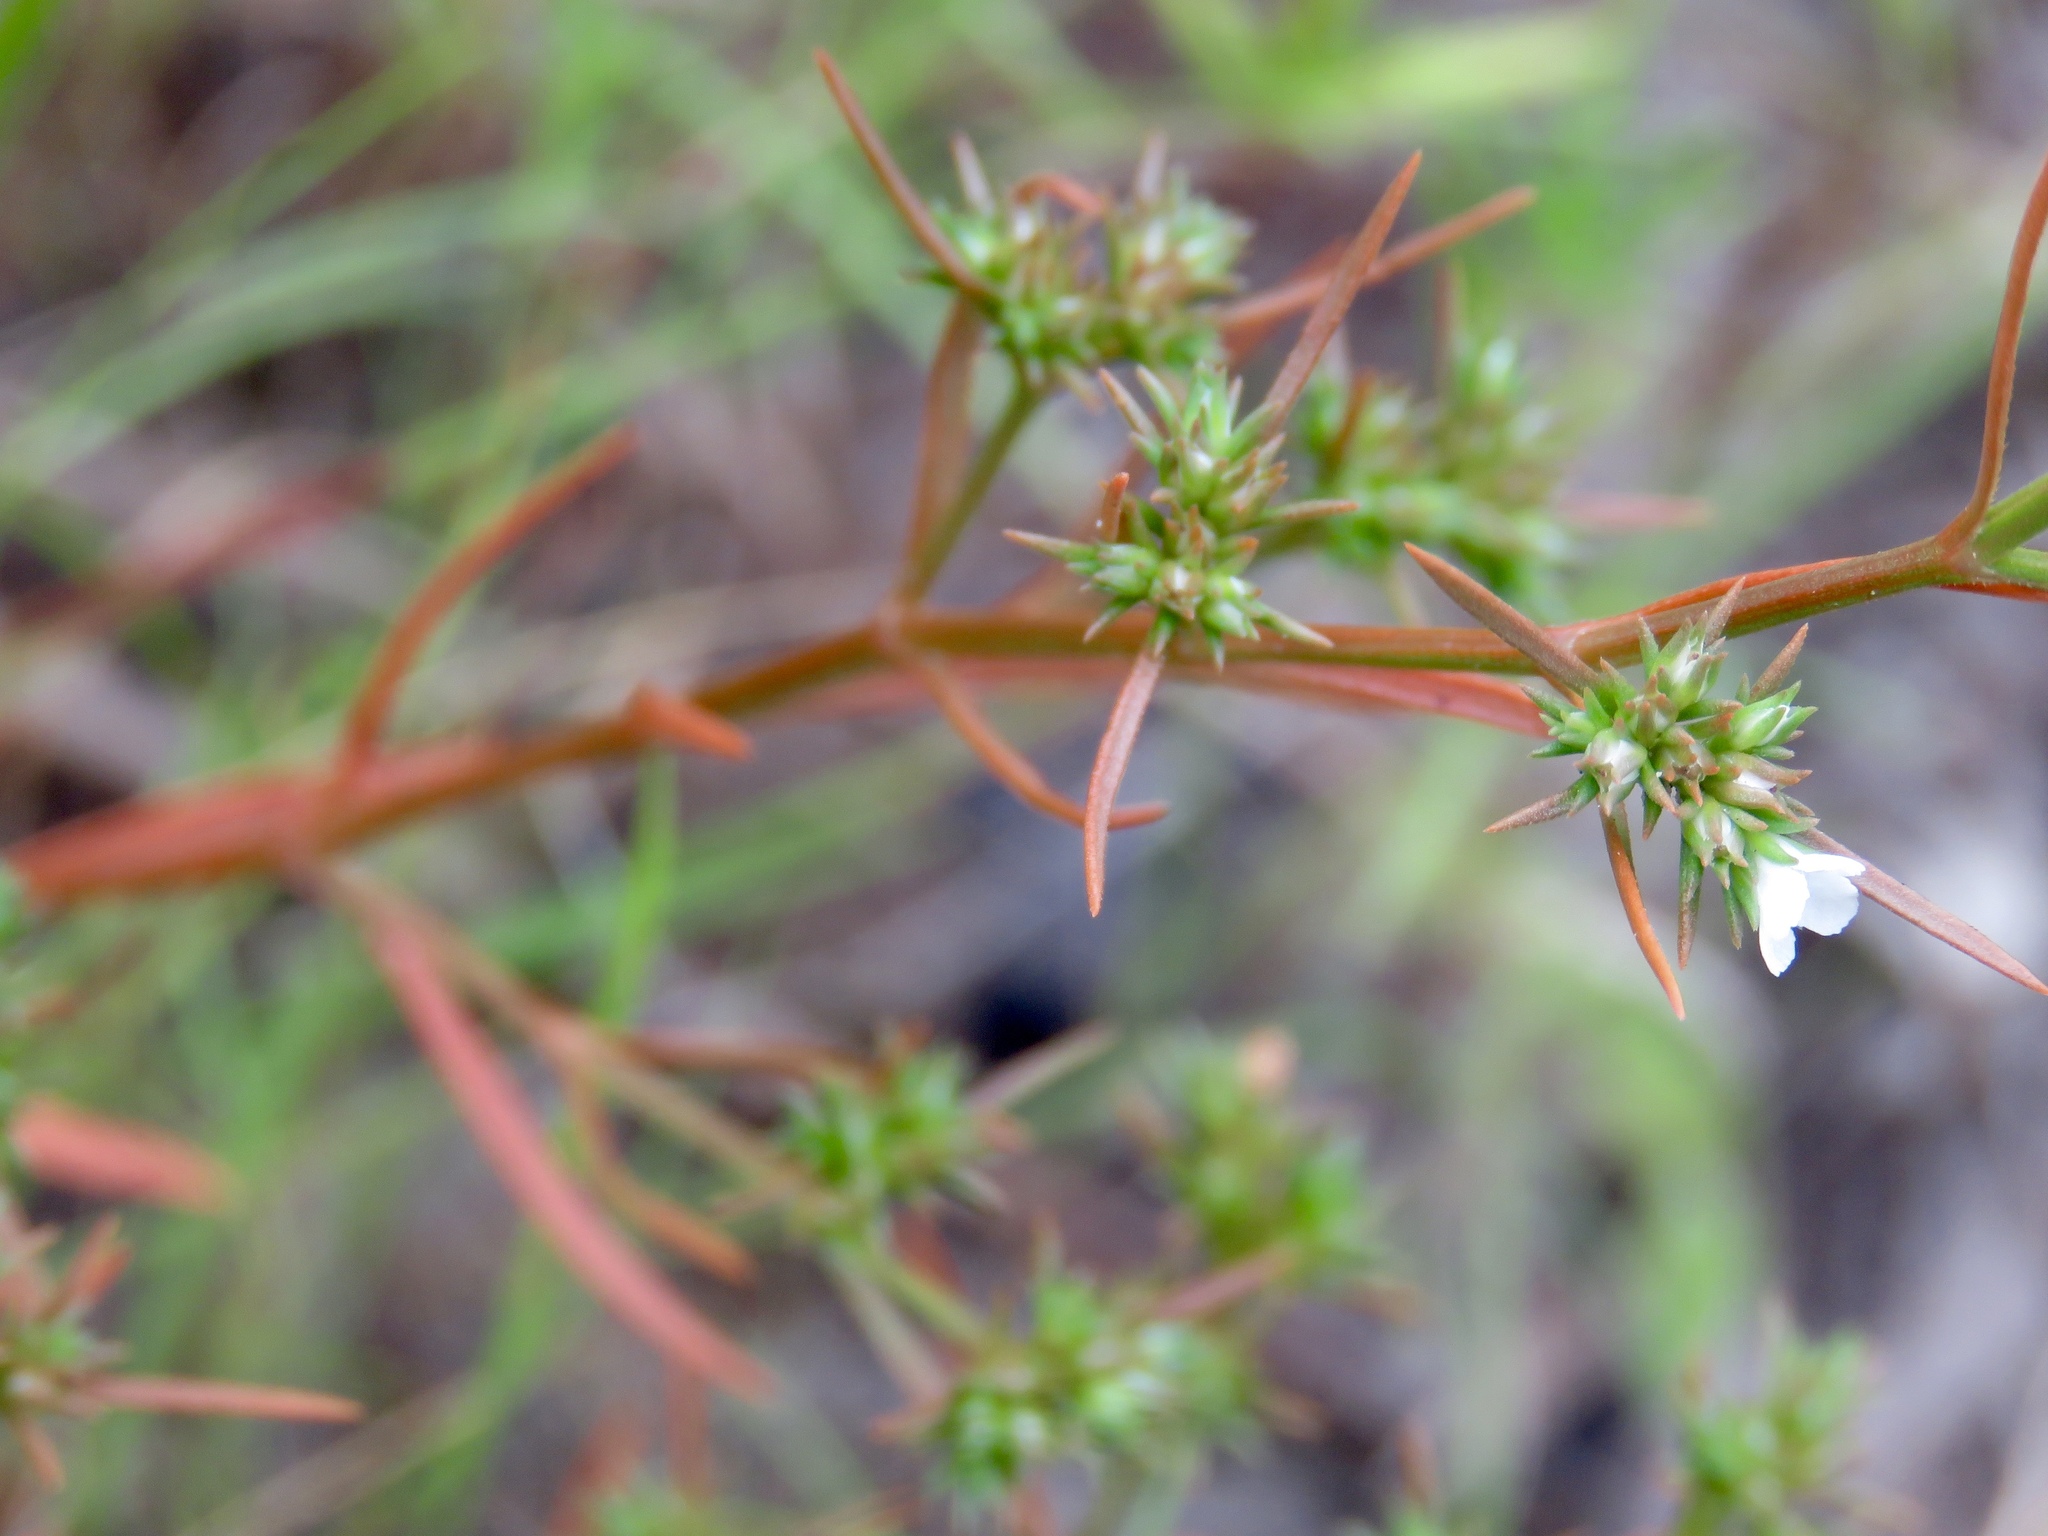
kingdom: Plantae
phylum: Tracheophyta
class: Magnoliopsida
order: Lamiales
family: Tetrachondraceae
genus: Polypremum
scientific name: Polypremum procumbens
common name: Juniper-leaf
